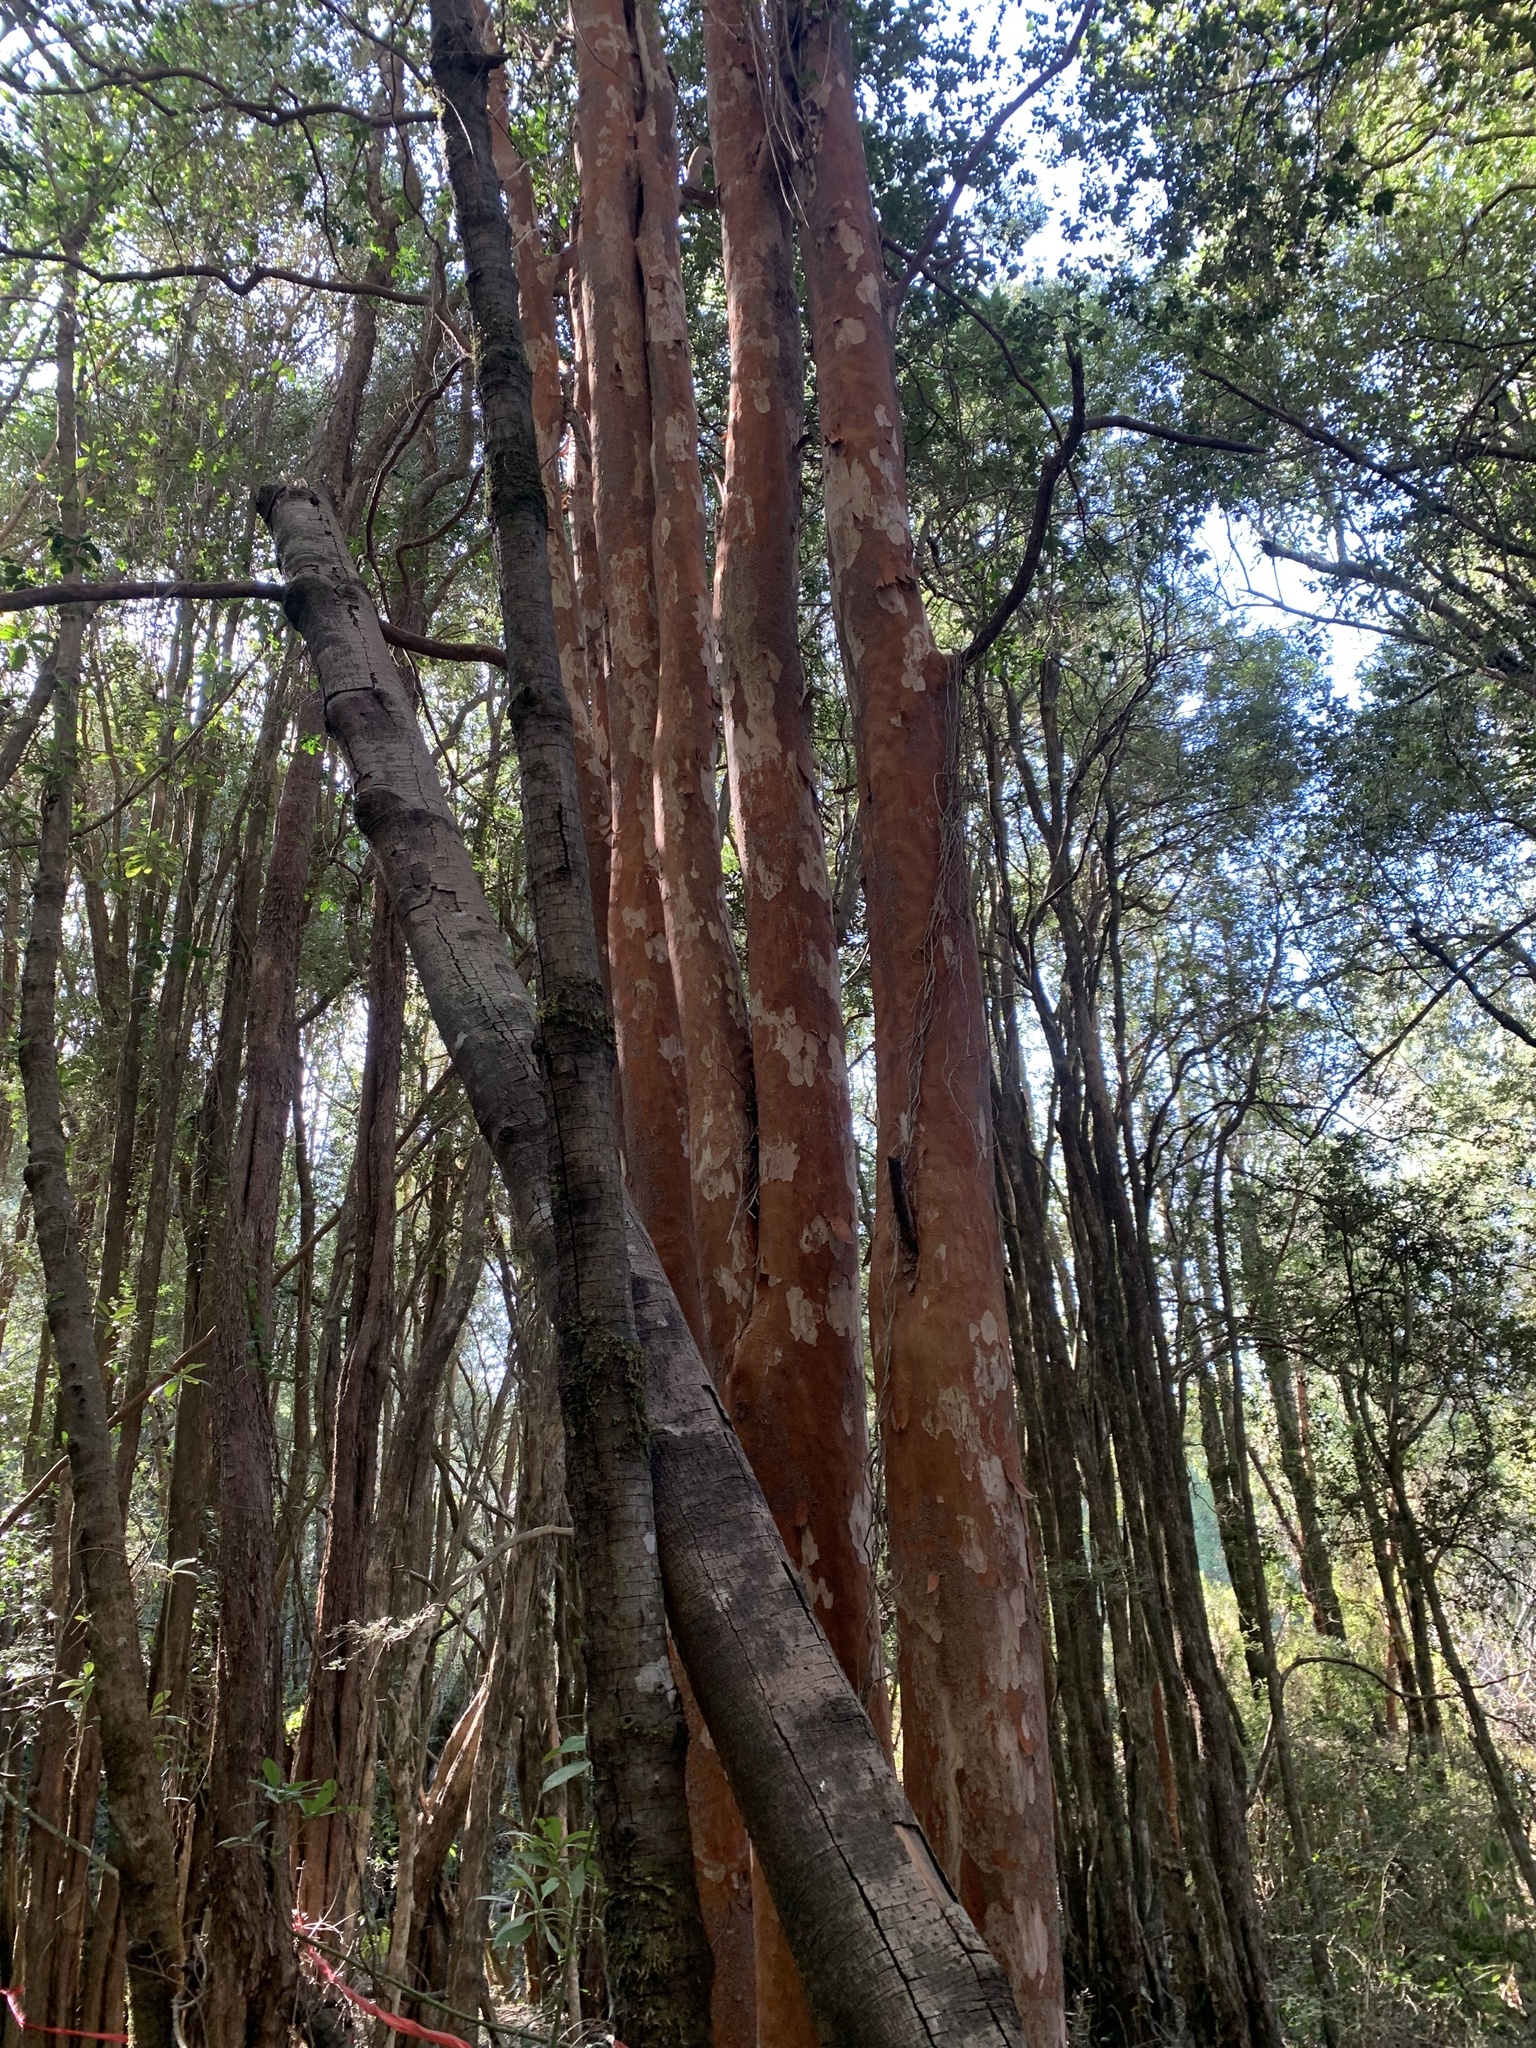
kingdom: Plantae
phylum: Tracheophyta
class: Magnoliopsida
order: Myrtales
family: Myrtaceae
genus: Blepharocalyx
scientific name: Blepharocalyx cruckshanksii
